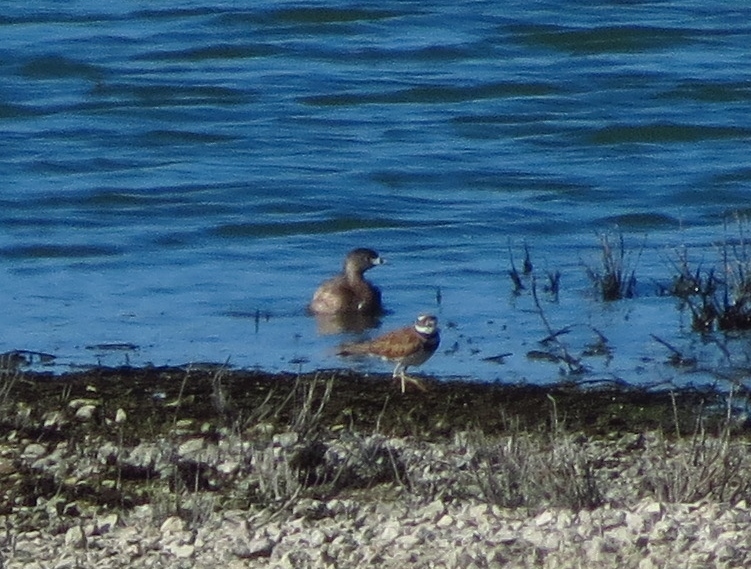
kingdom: Animalia
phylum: Chordata
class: Aves
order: Podicipediformes
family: Podicipedidae
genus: Podilymbus
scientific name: Podilymbus podiceps
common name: Pied-billed grebe
